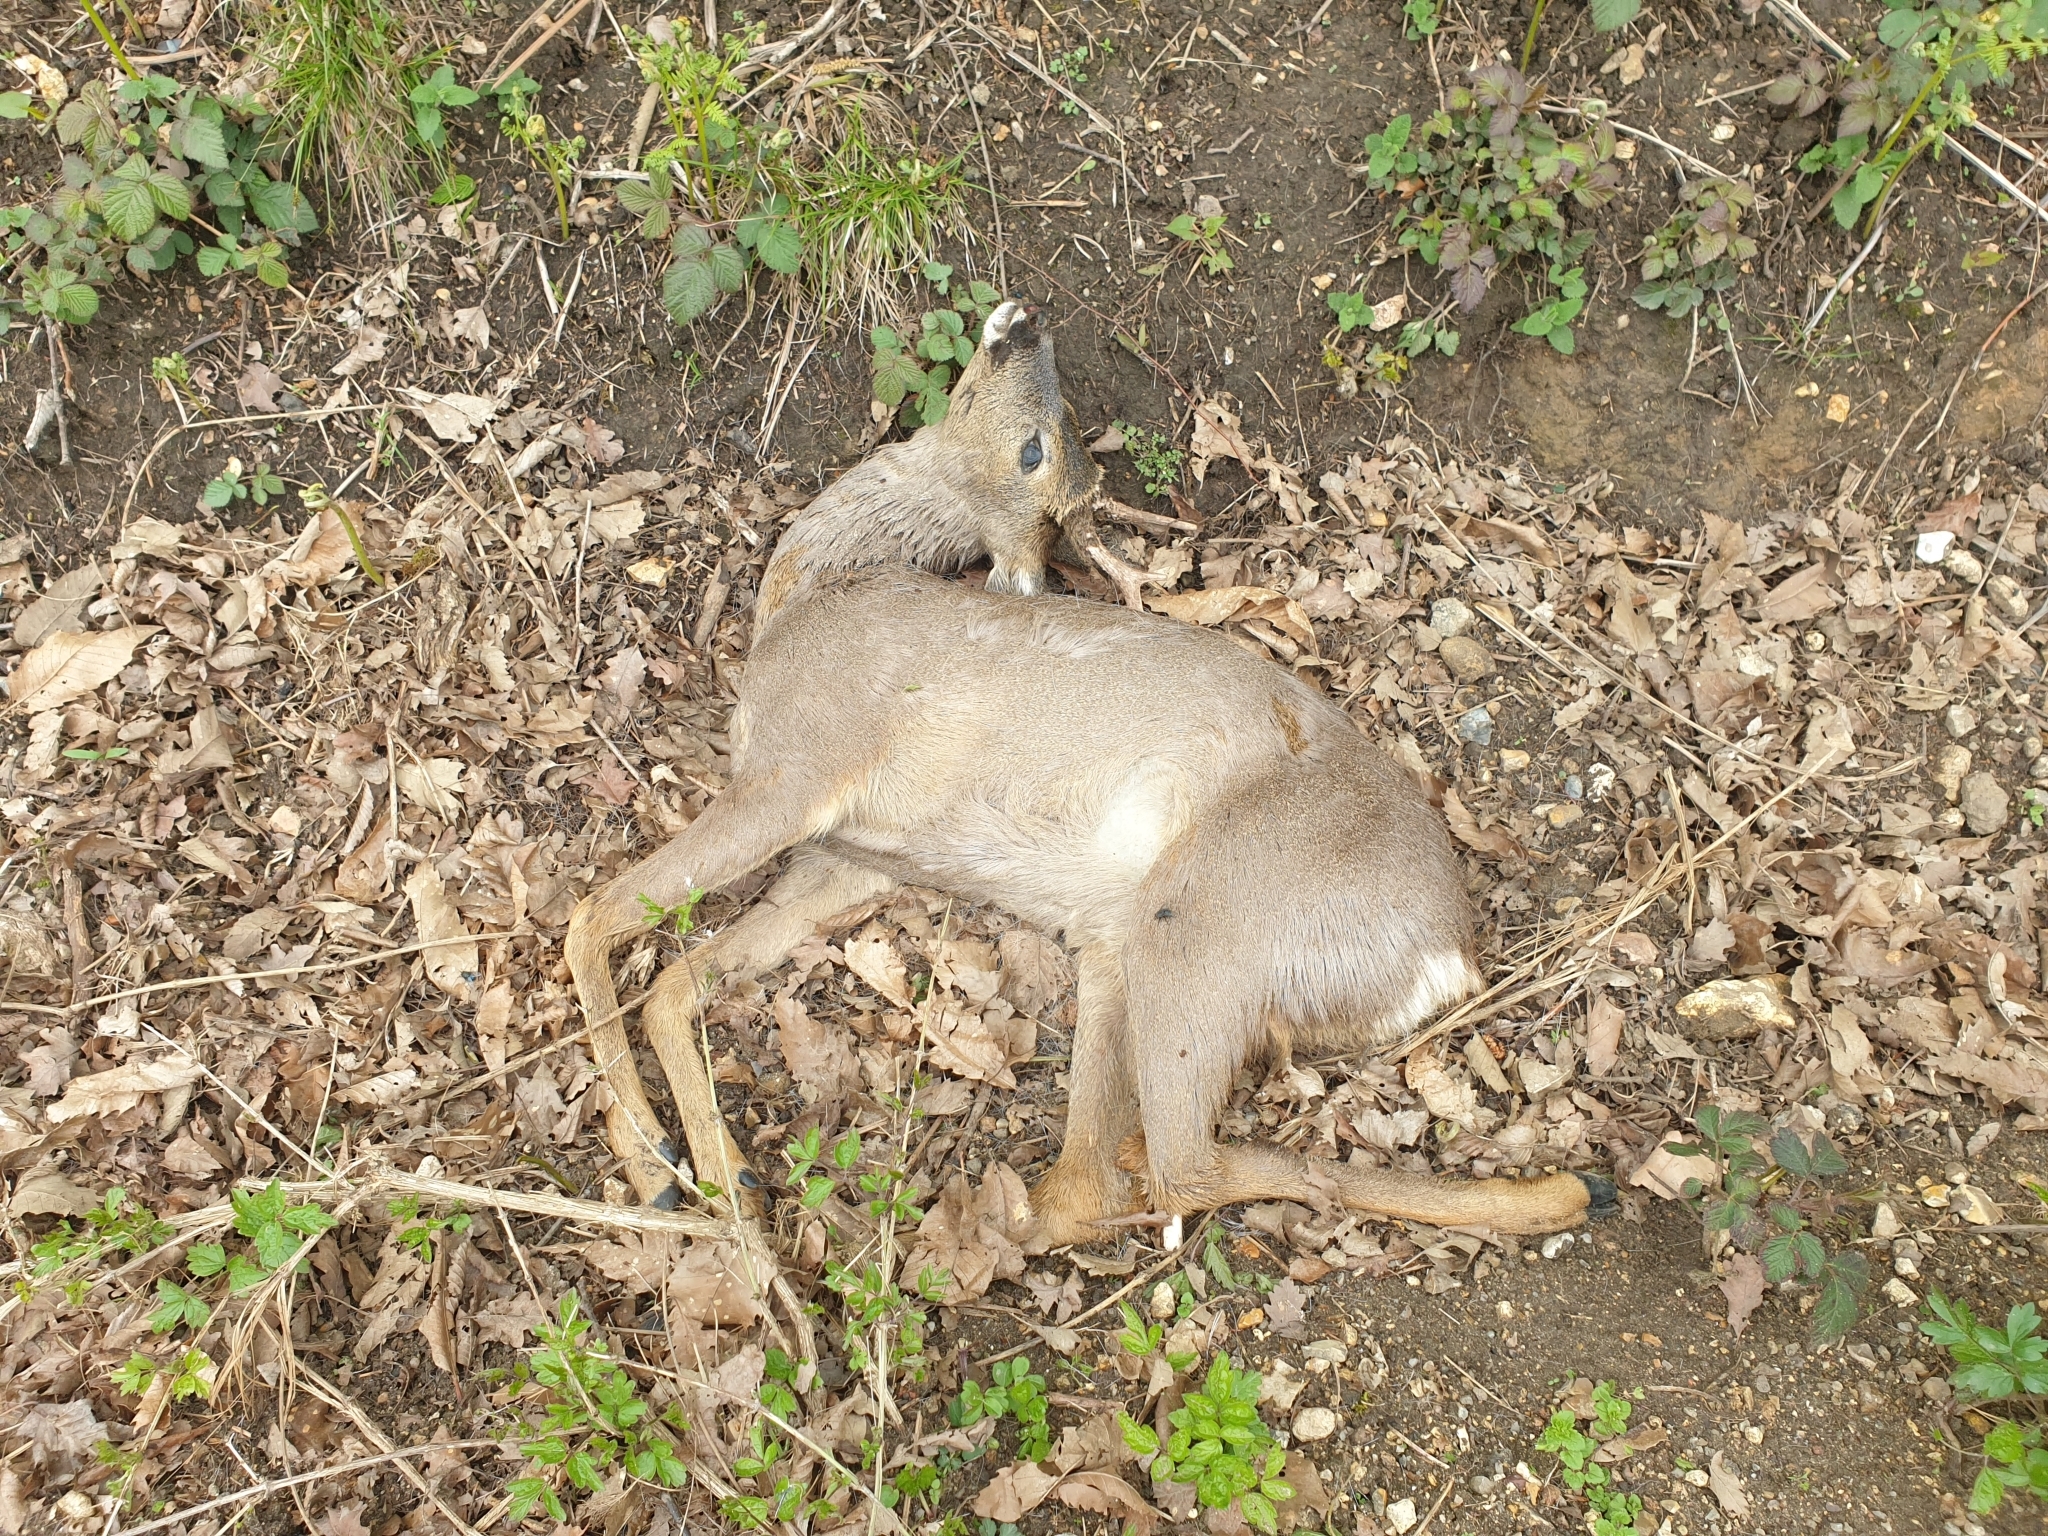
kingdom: Animalia
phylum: Chordata
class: Mammalia
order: Artiodactyla
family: Cervidae
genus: Capreolus
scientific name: Capreolus capreolus
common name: Western roe deer
